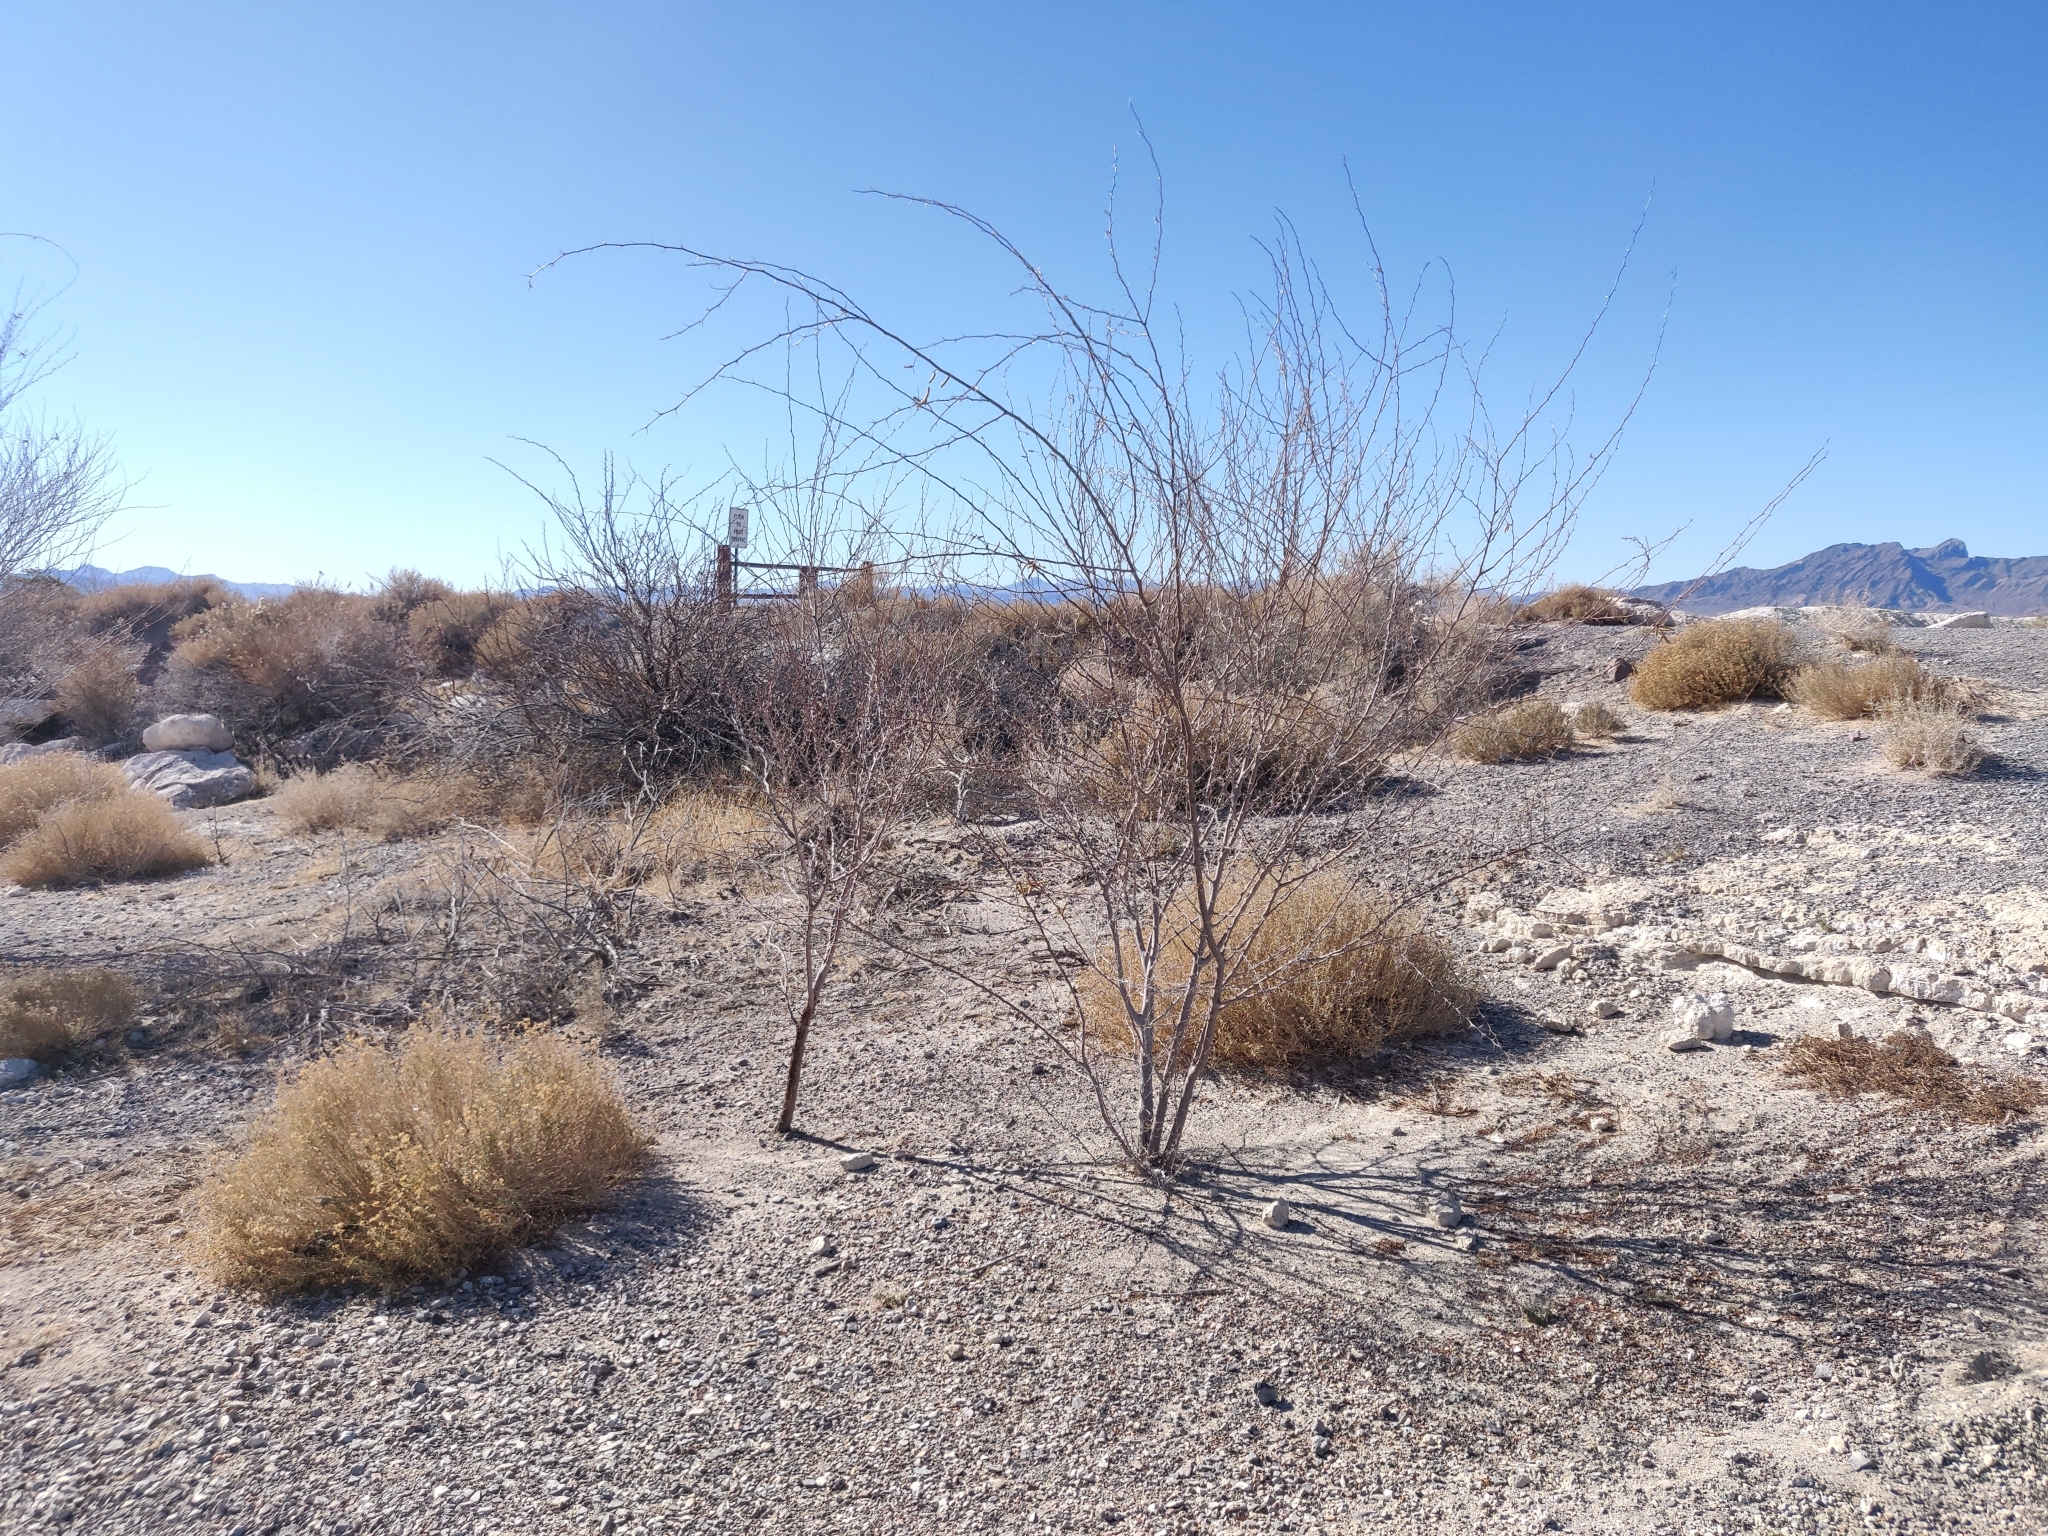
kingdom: Plantae
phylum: Tracheophyta
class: Magnoliopsida
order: Fabales
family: Fabaceae
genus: Prosopis
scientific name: Prosopis pubescens
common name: Screw-bean
